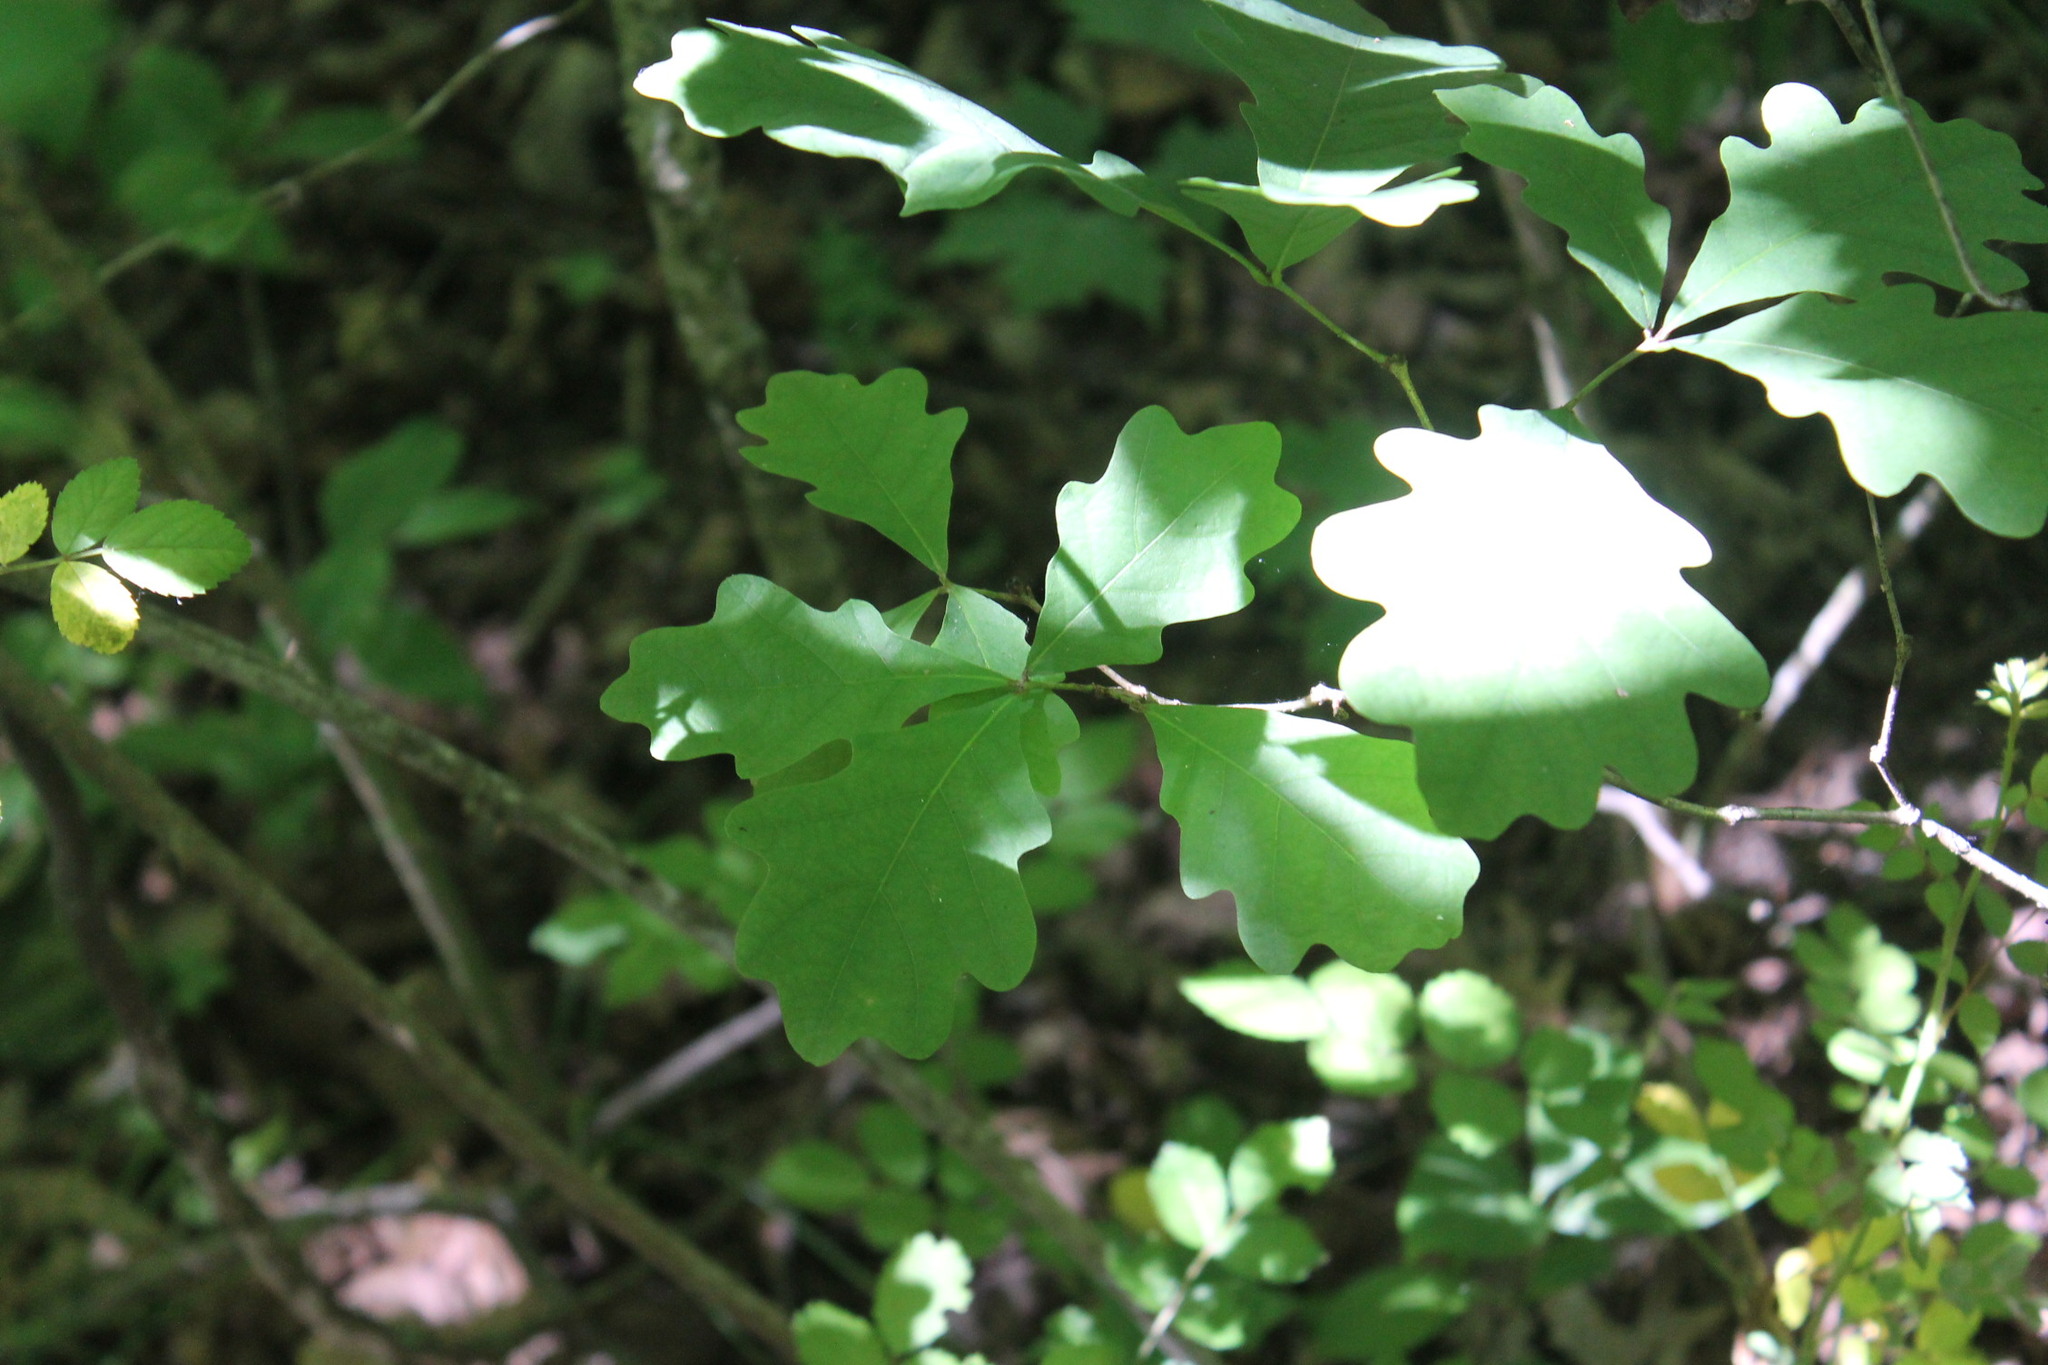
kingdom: Plantae
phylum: Tracheophyta
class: Magnoliopsida
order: Fagales
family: Fagaceae
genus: Quercus
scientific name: Quercus alba
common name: White oak
